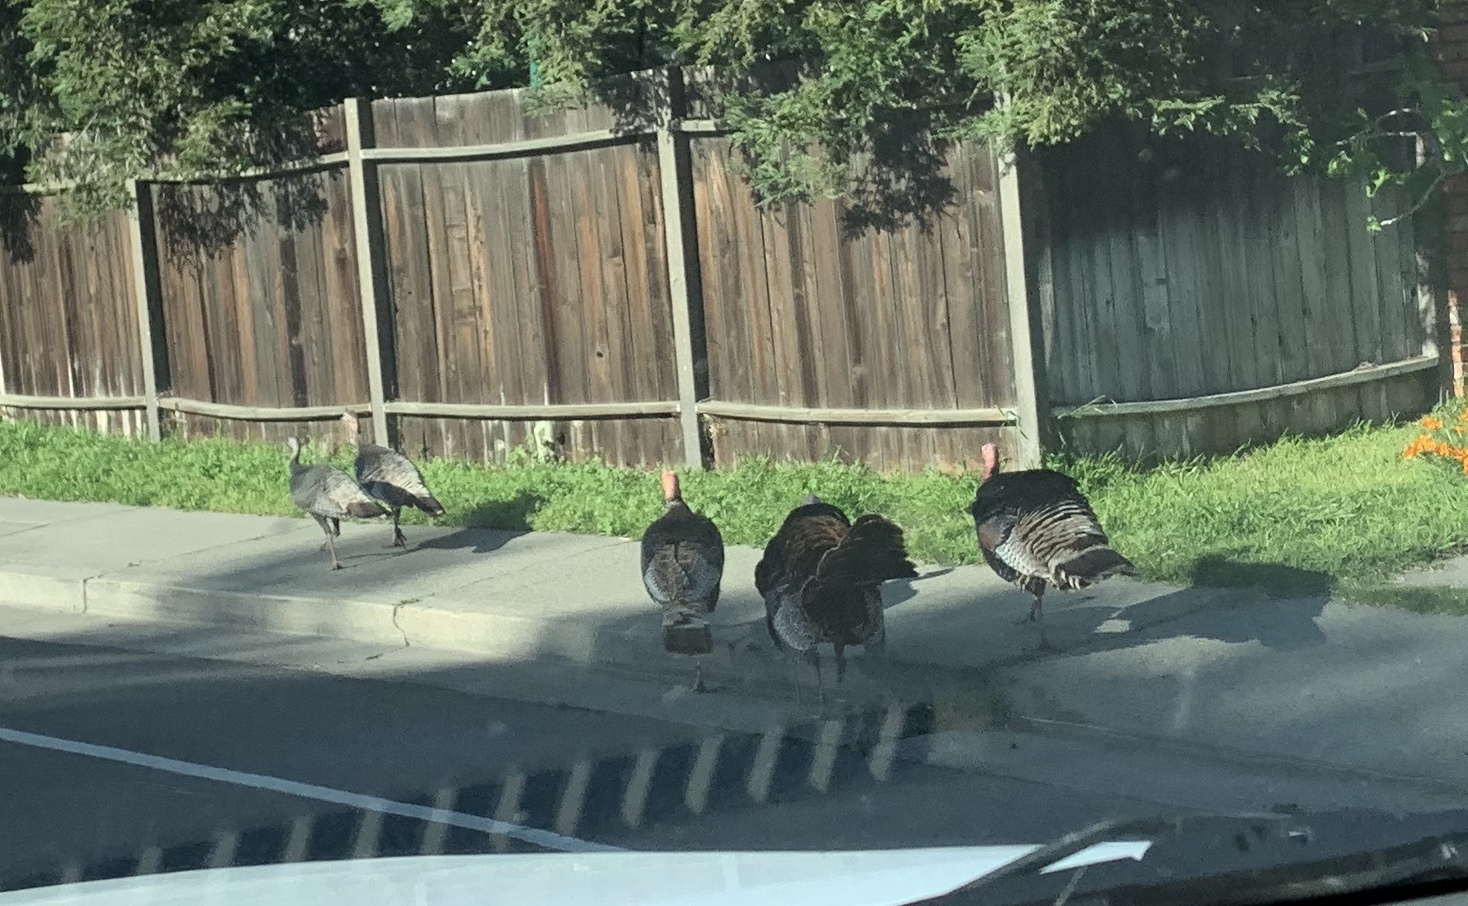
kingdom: Animalia
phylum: Chordata
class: Aves
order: Galliformes
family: Phasianidae
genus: Meleagris
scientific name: Meleagris gallopavo
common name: Wild turkey
